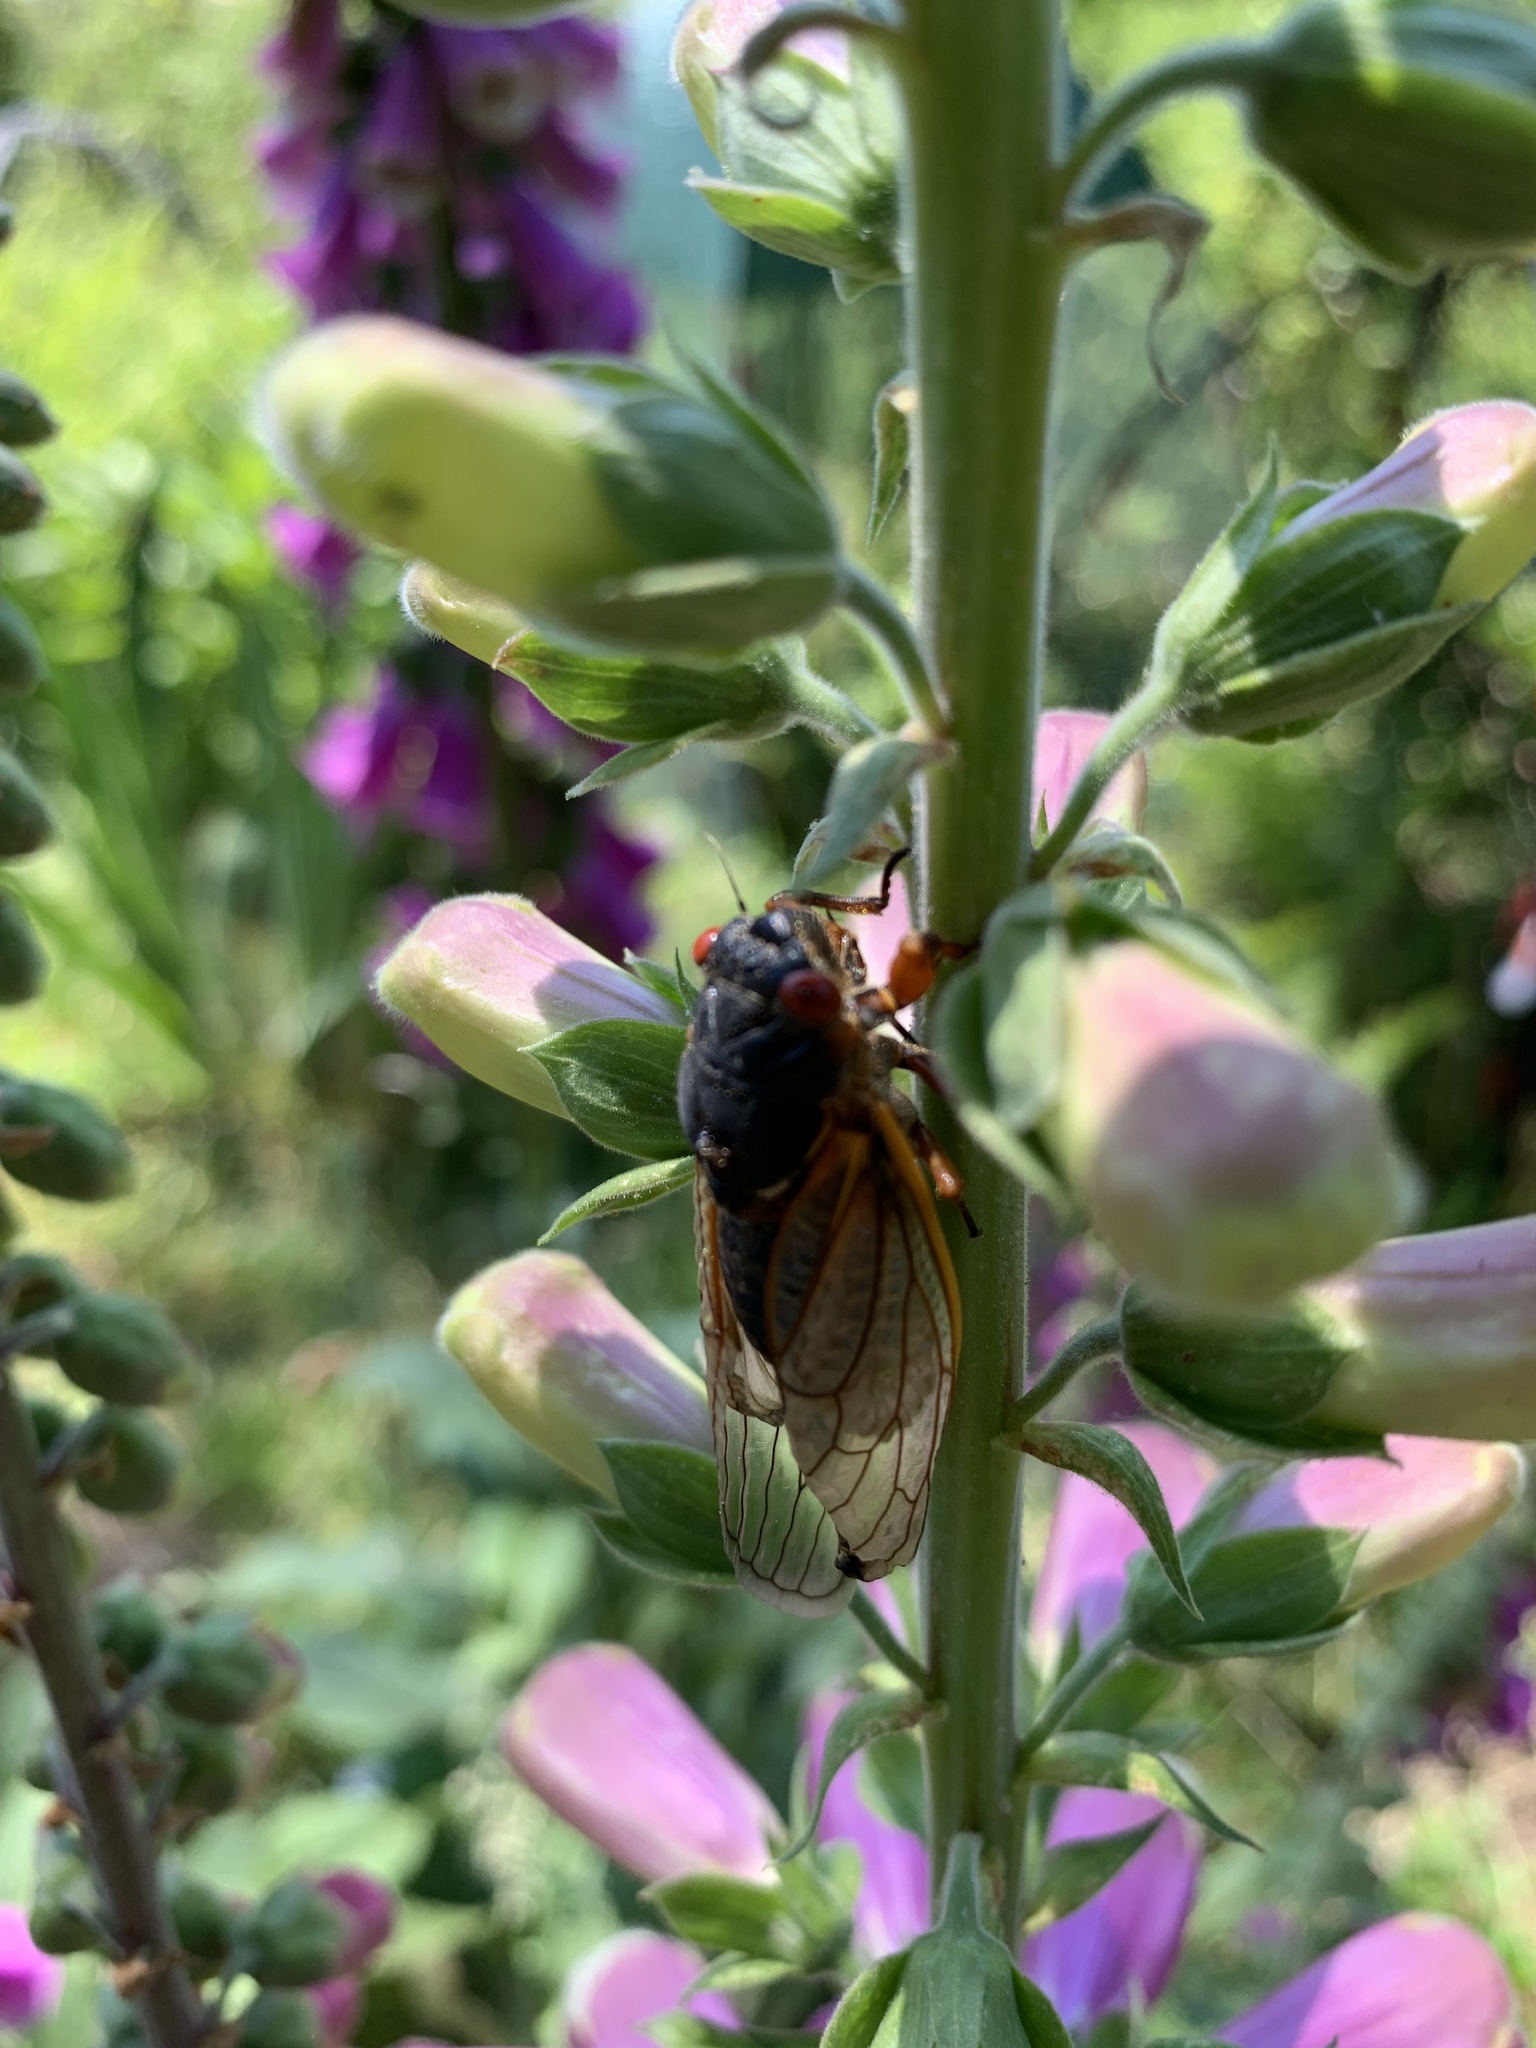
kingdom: Animalia
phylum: Arthropoda
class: Insecta
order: Hemiptera
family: Cicadidae
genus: Magicicada
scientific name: Magicicada septendecim
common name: Periodical cicada
